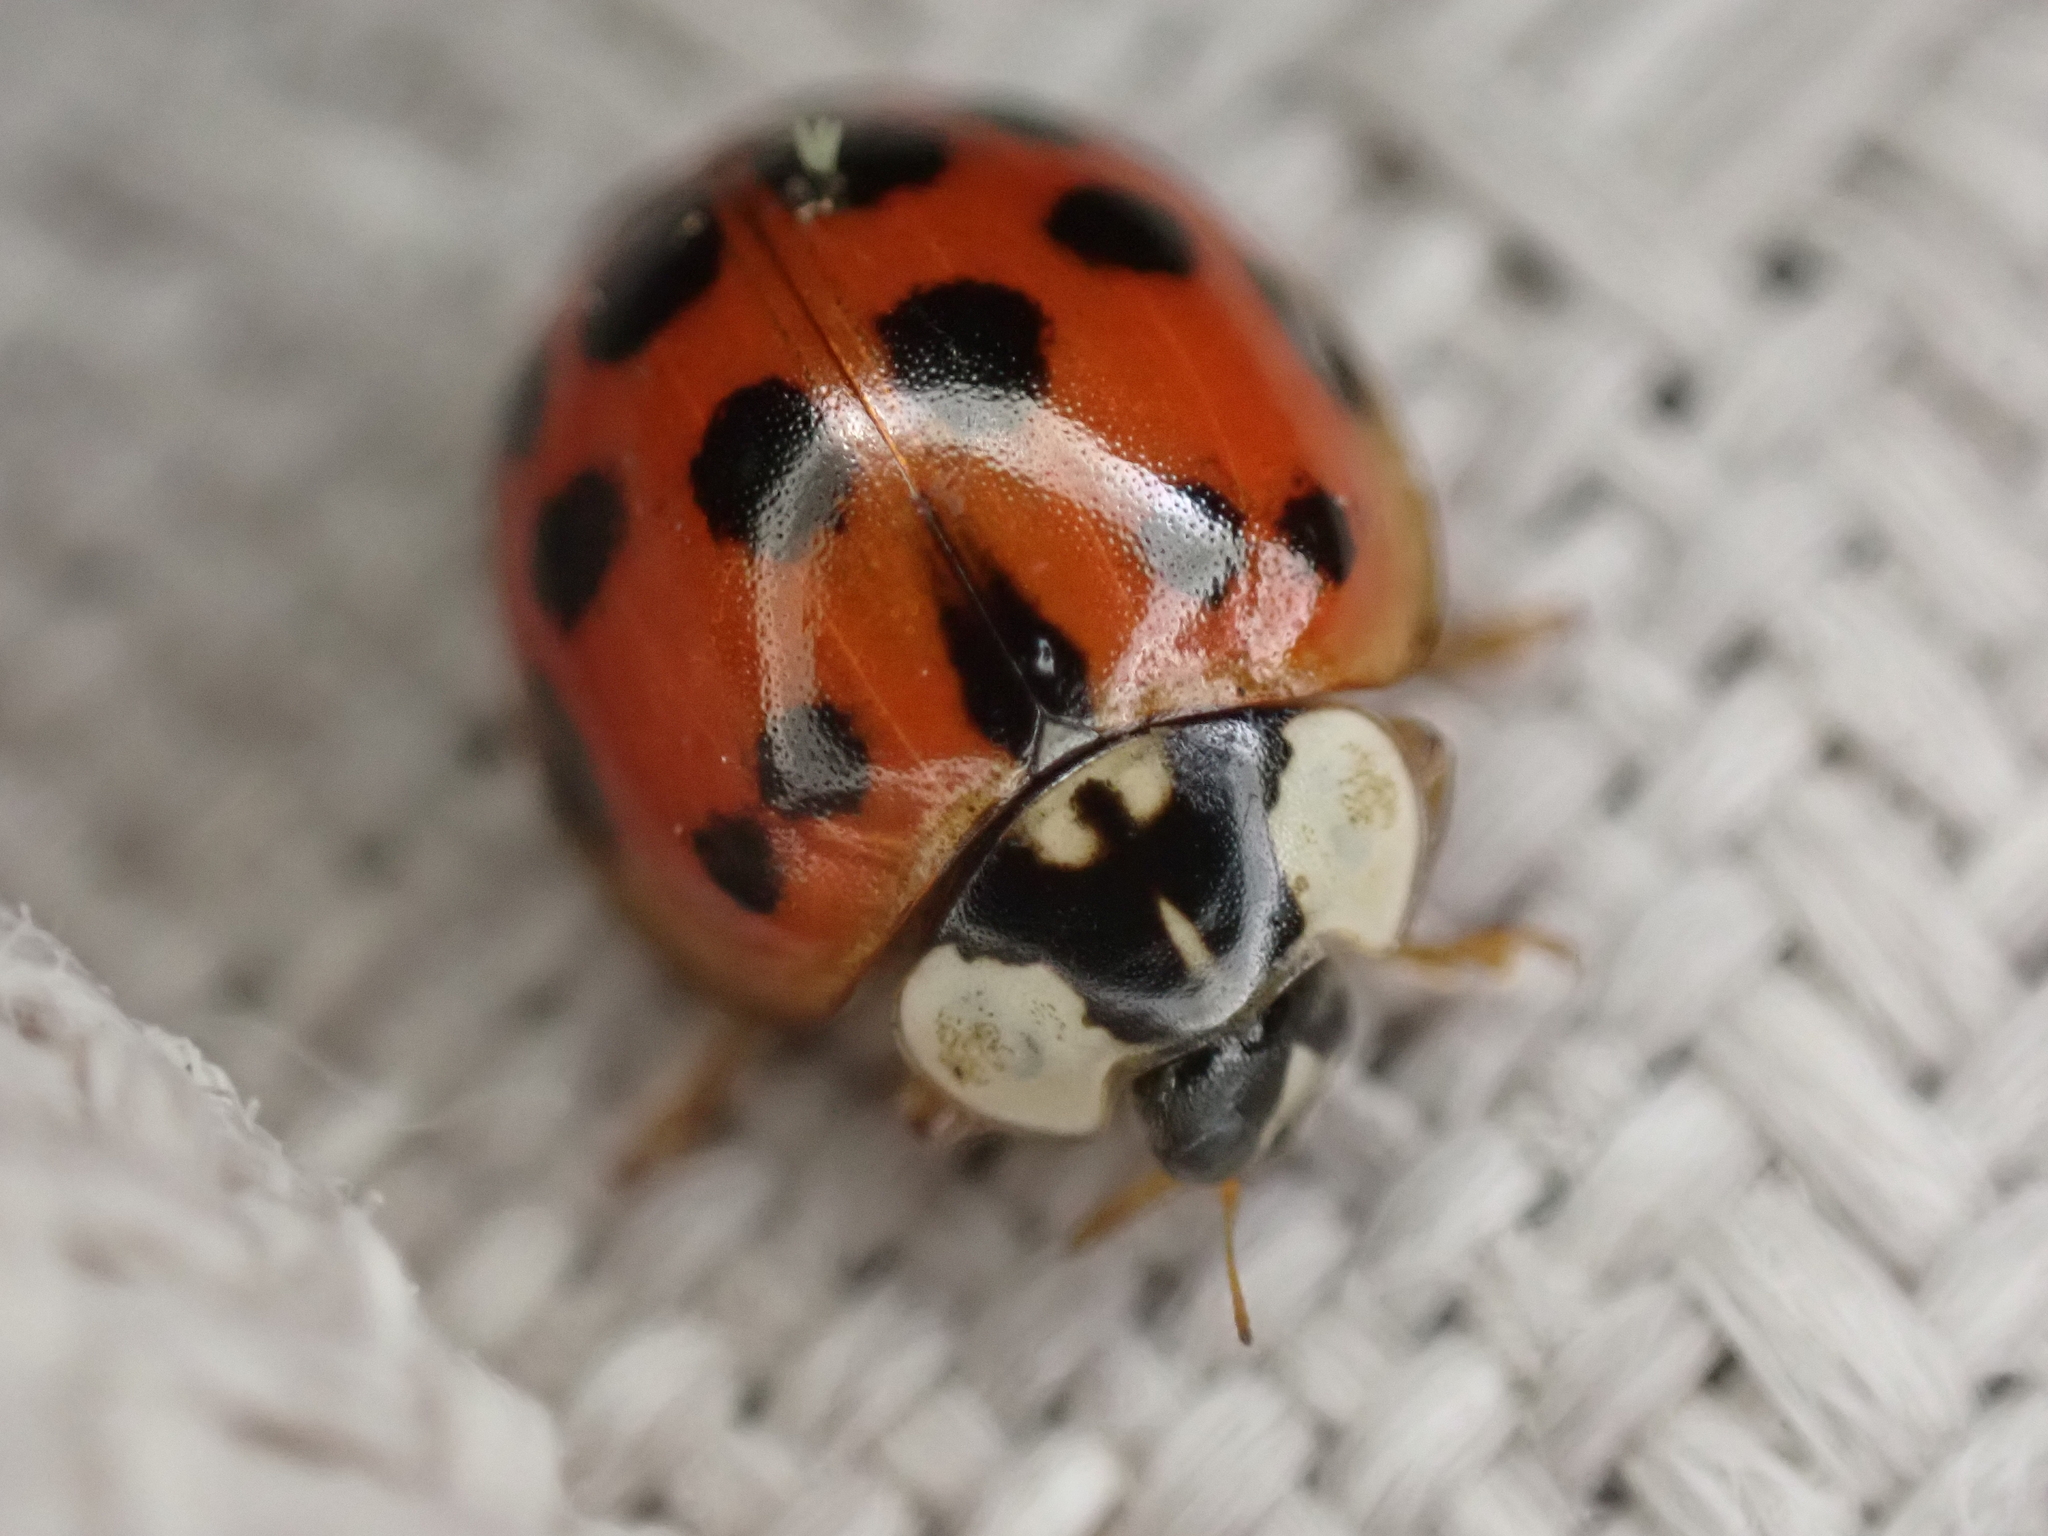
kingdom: Animalia
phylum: Arthropoda
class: Insecta
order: Coleoptera
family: Coccinellidae
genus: Harmonia
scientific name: Harmonia axyridis
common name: Harlequin ladybird
